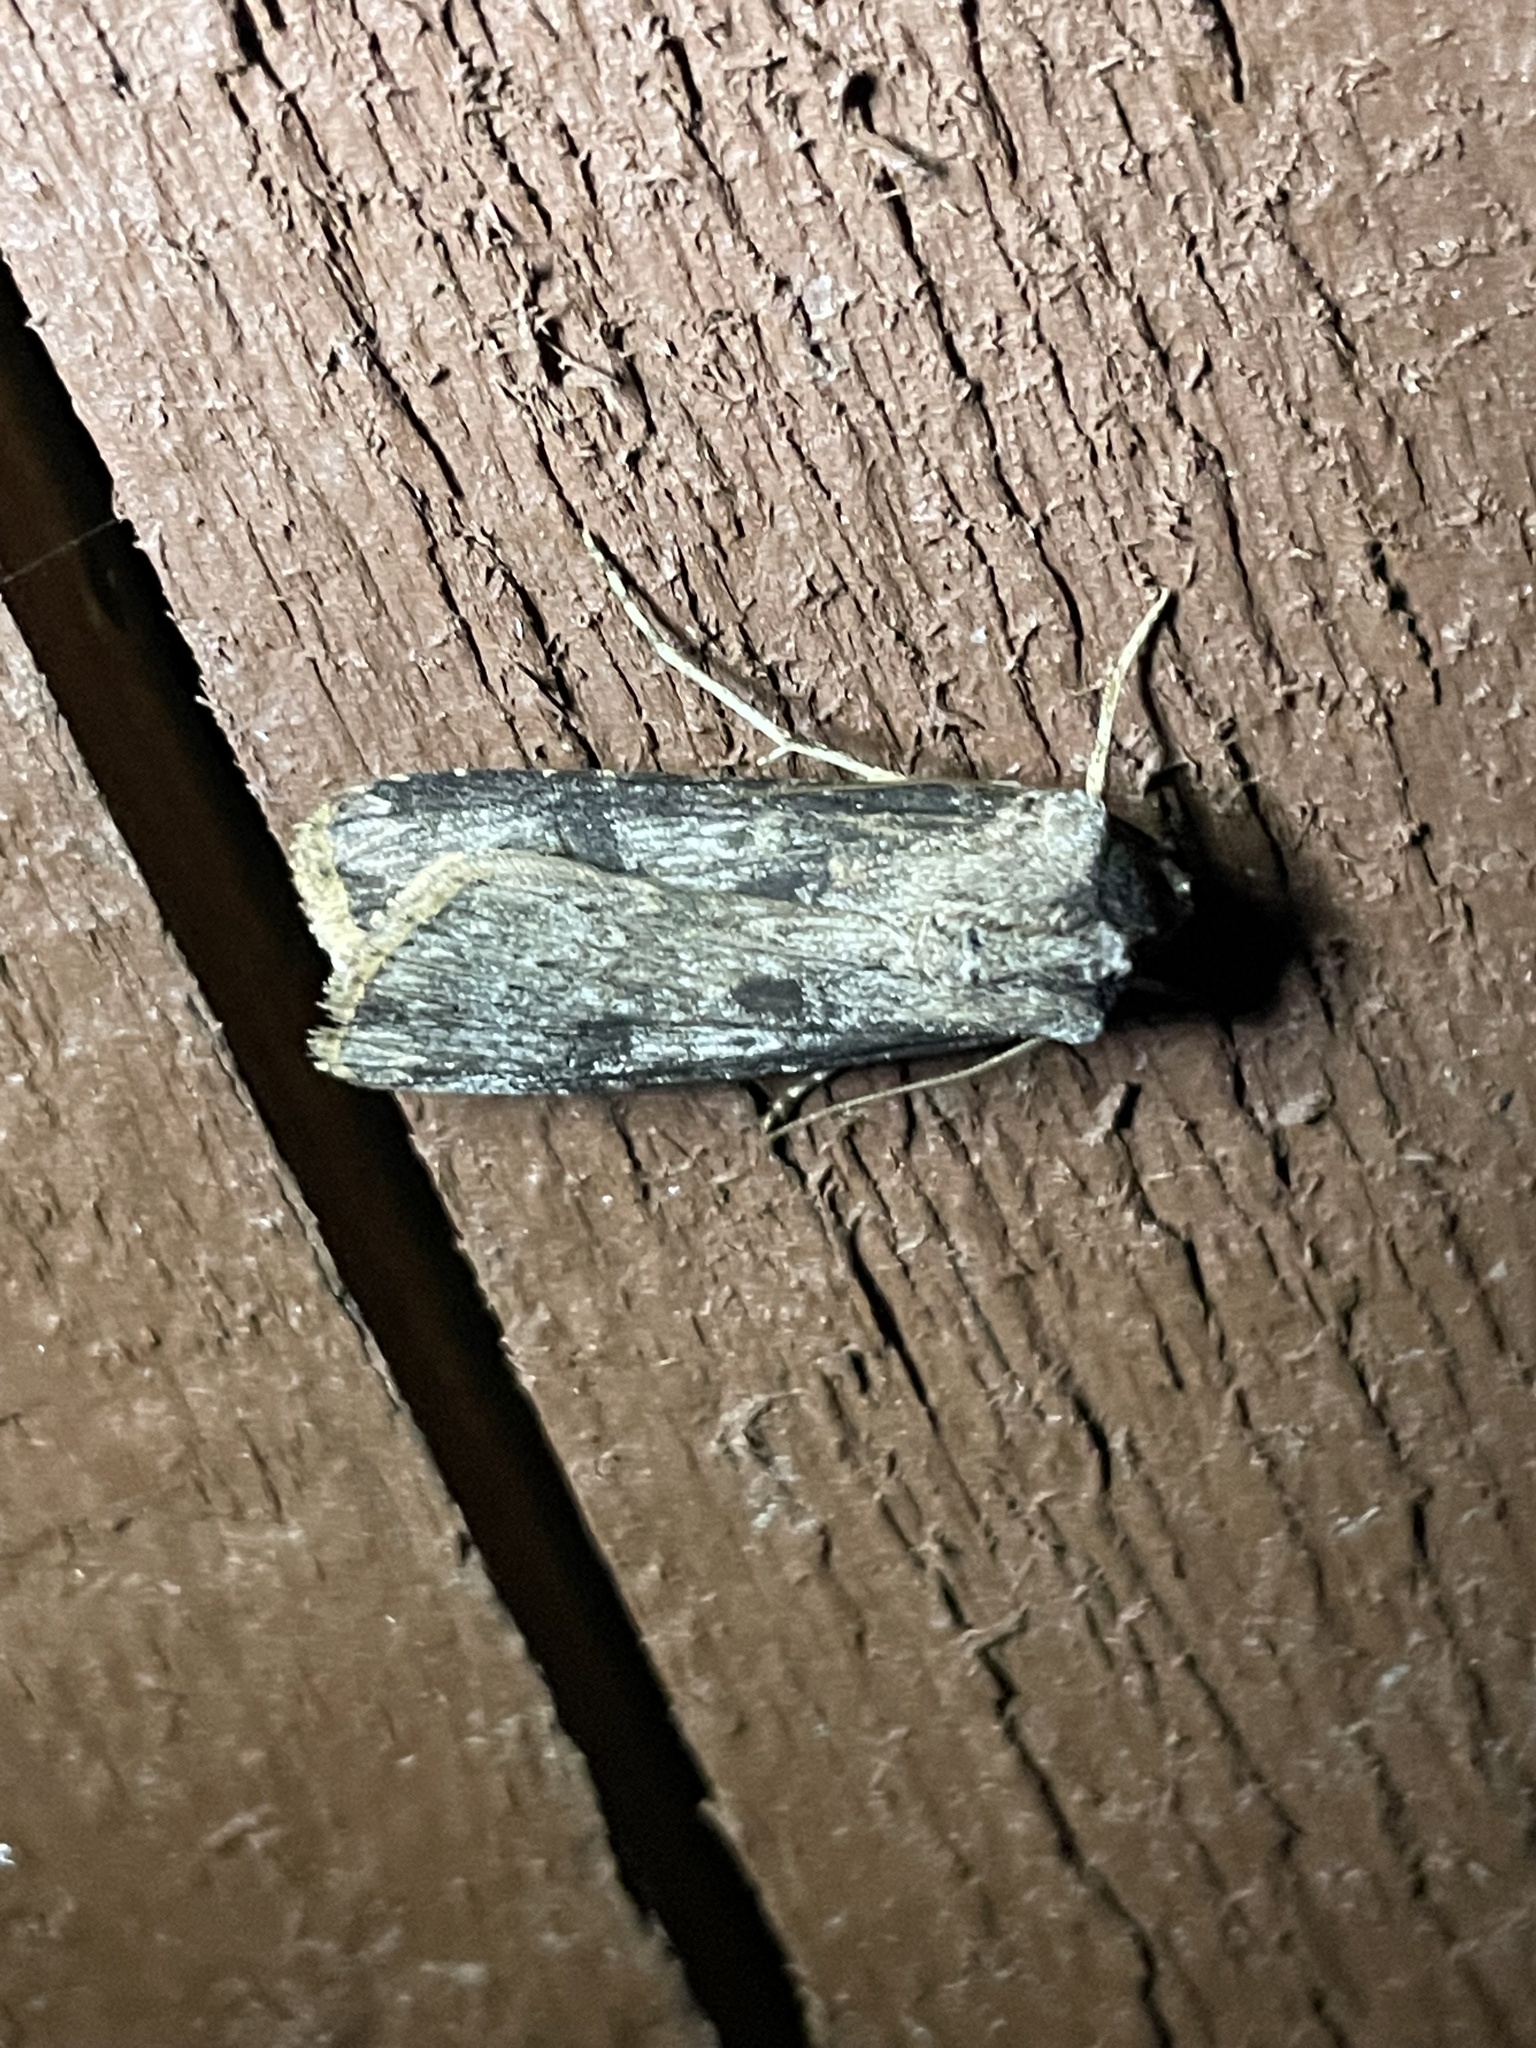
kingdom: Animalia
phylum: Arthropoda
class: Insecta
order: Lepidoptera
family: Noctuidae
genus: Agrotis
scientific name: Agrotis malefida
